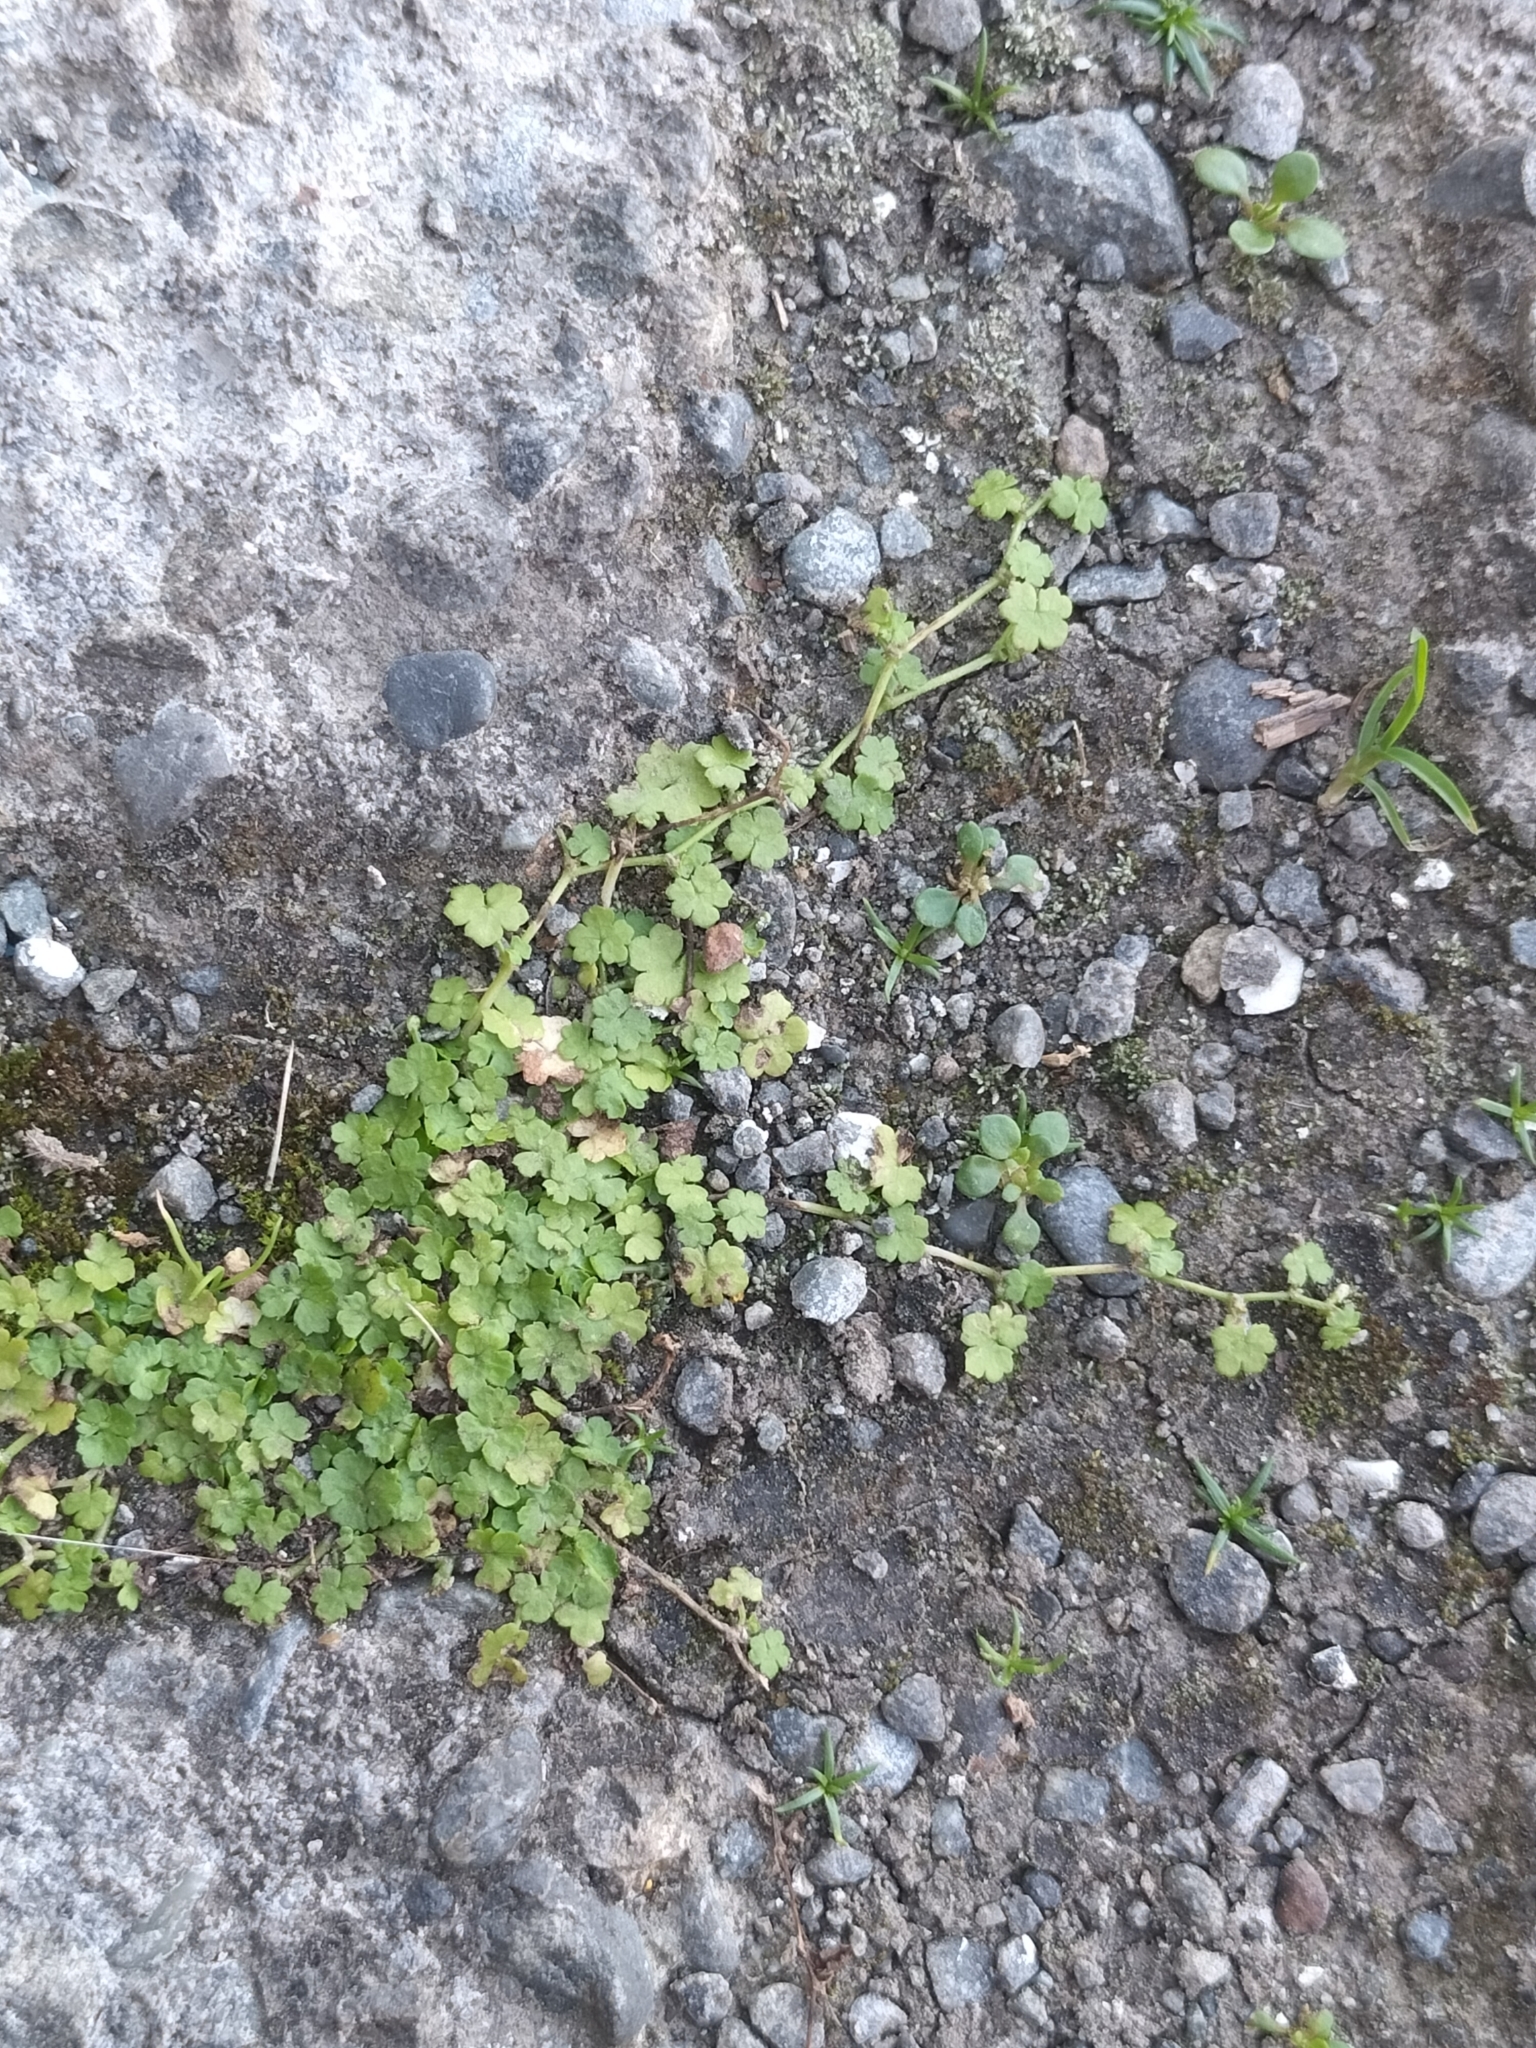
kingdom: Plantae
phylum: Tracheophyta
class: Magnoliopsida
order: Apiales
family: Araliaceae
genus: Hydrocotyle
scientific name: Hydrocotyle heteromeria
